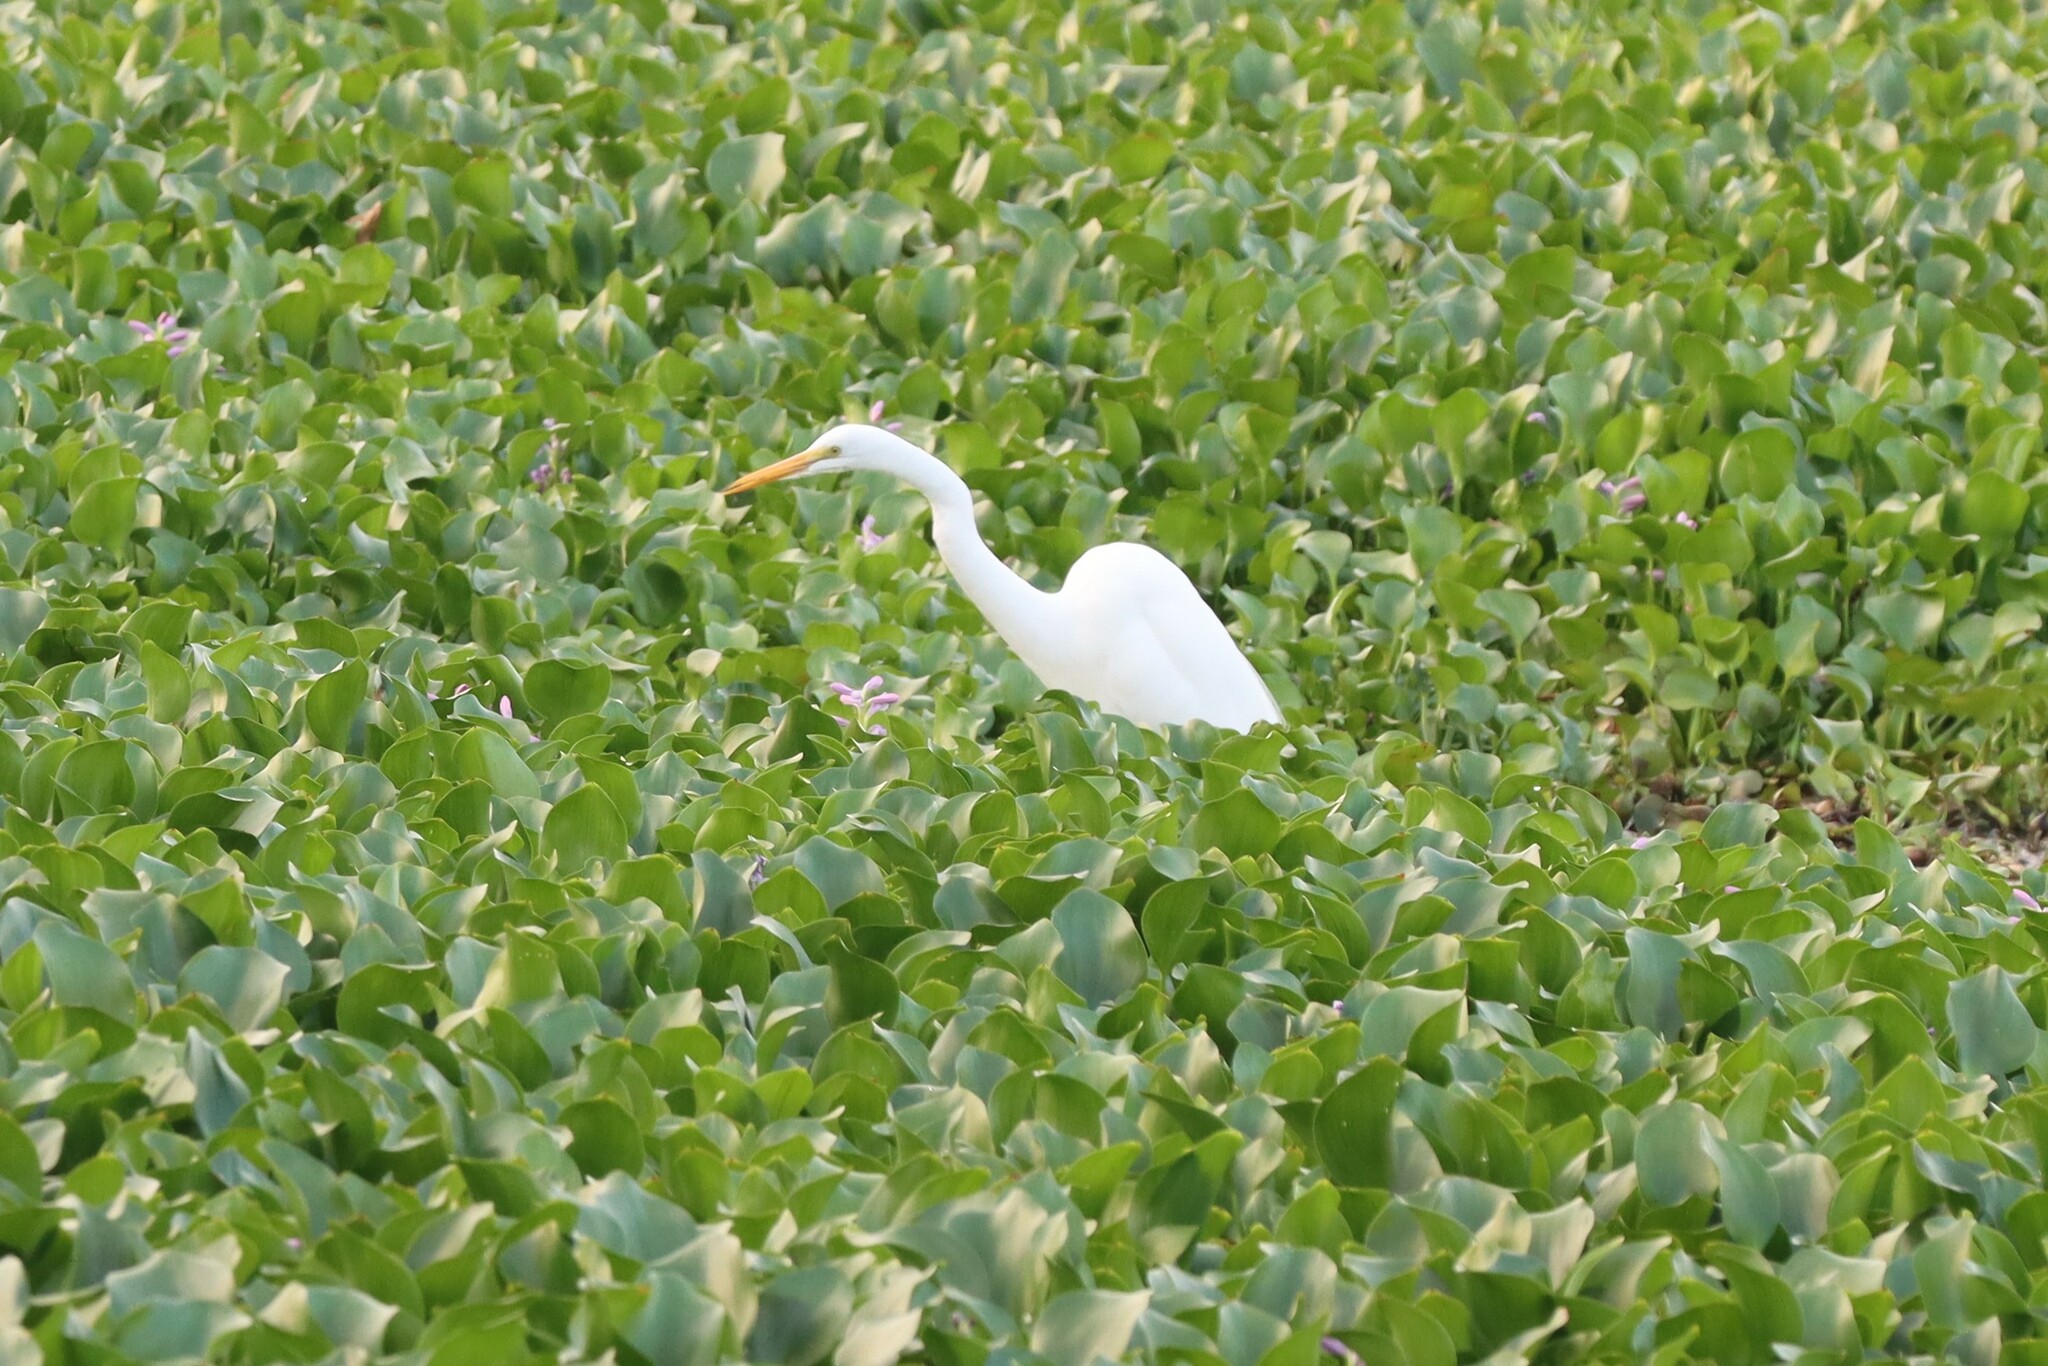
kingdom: Animalia
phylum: Chordata
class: Aves
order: Pelecaniformes
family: Ardeidae
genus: Ardea
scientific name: Ardea alba
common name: Great egret
